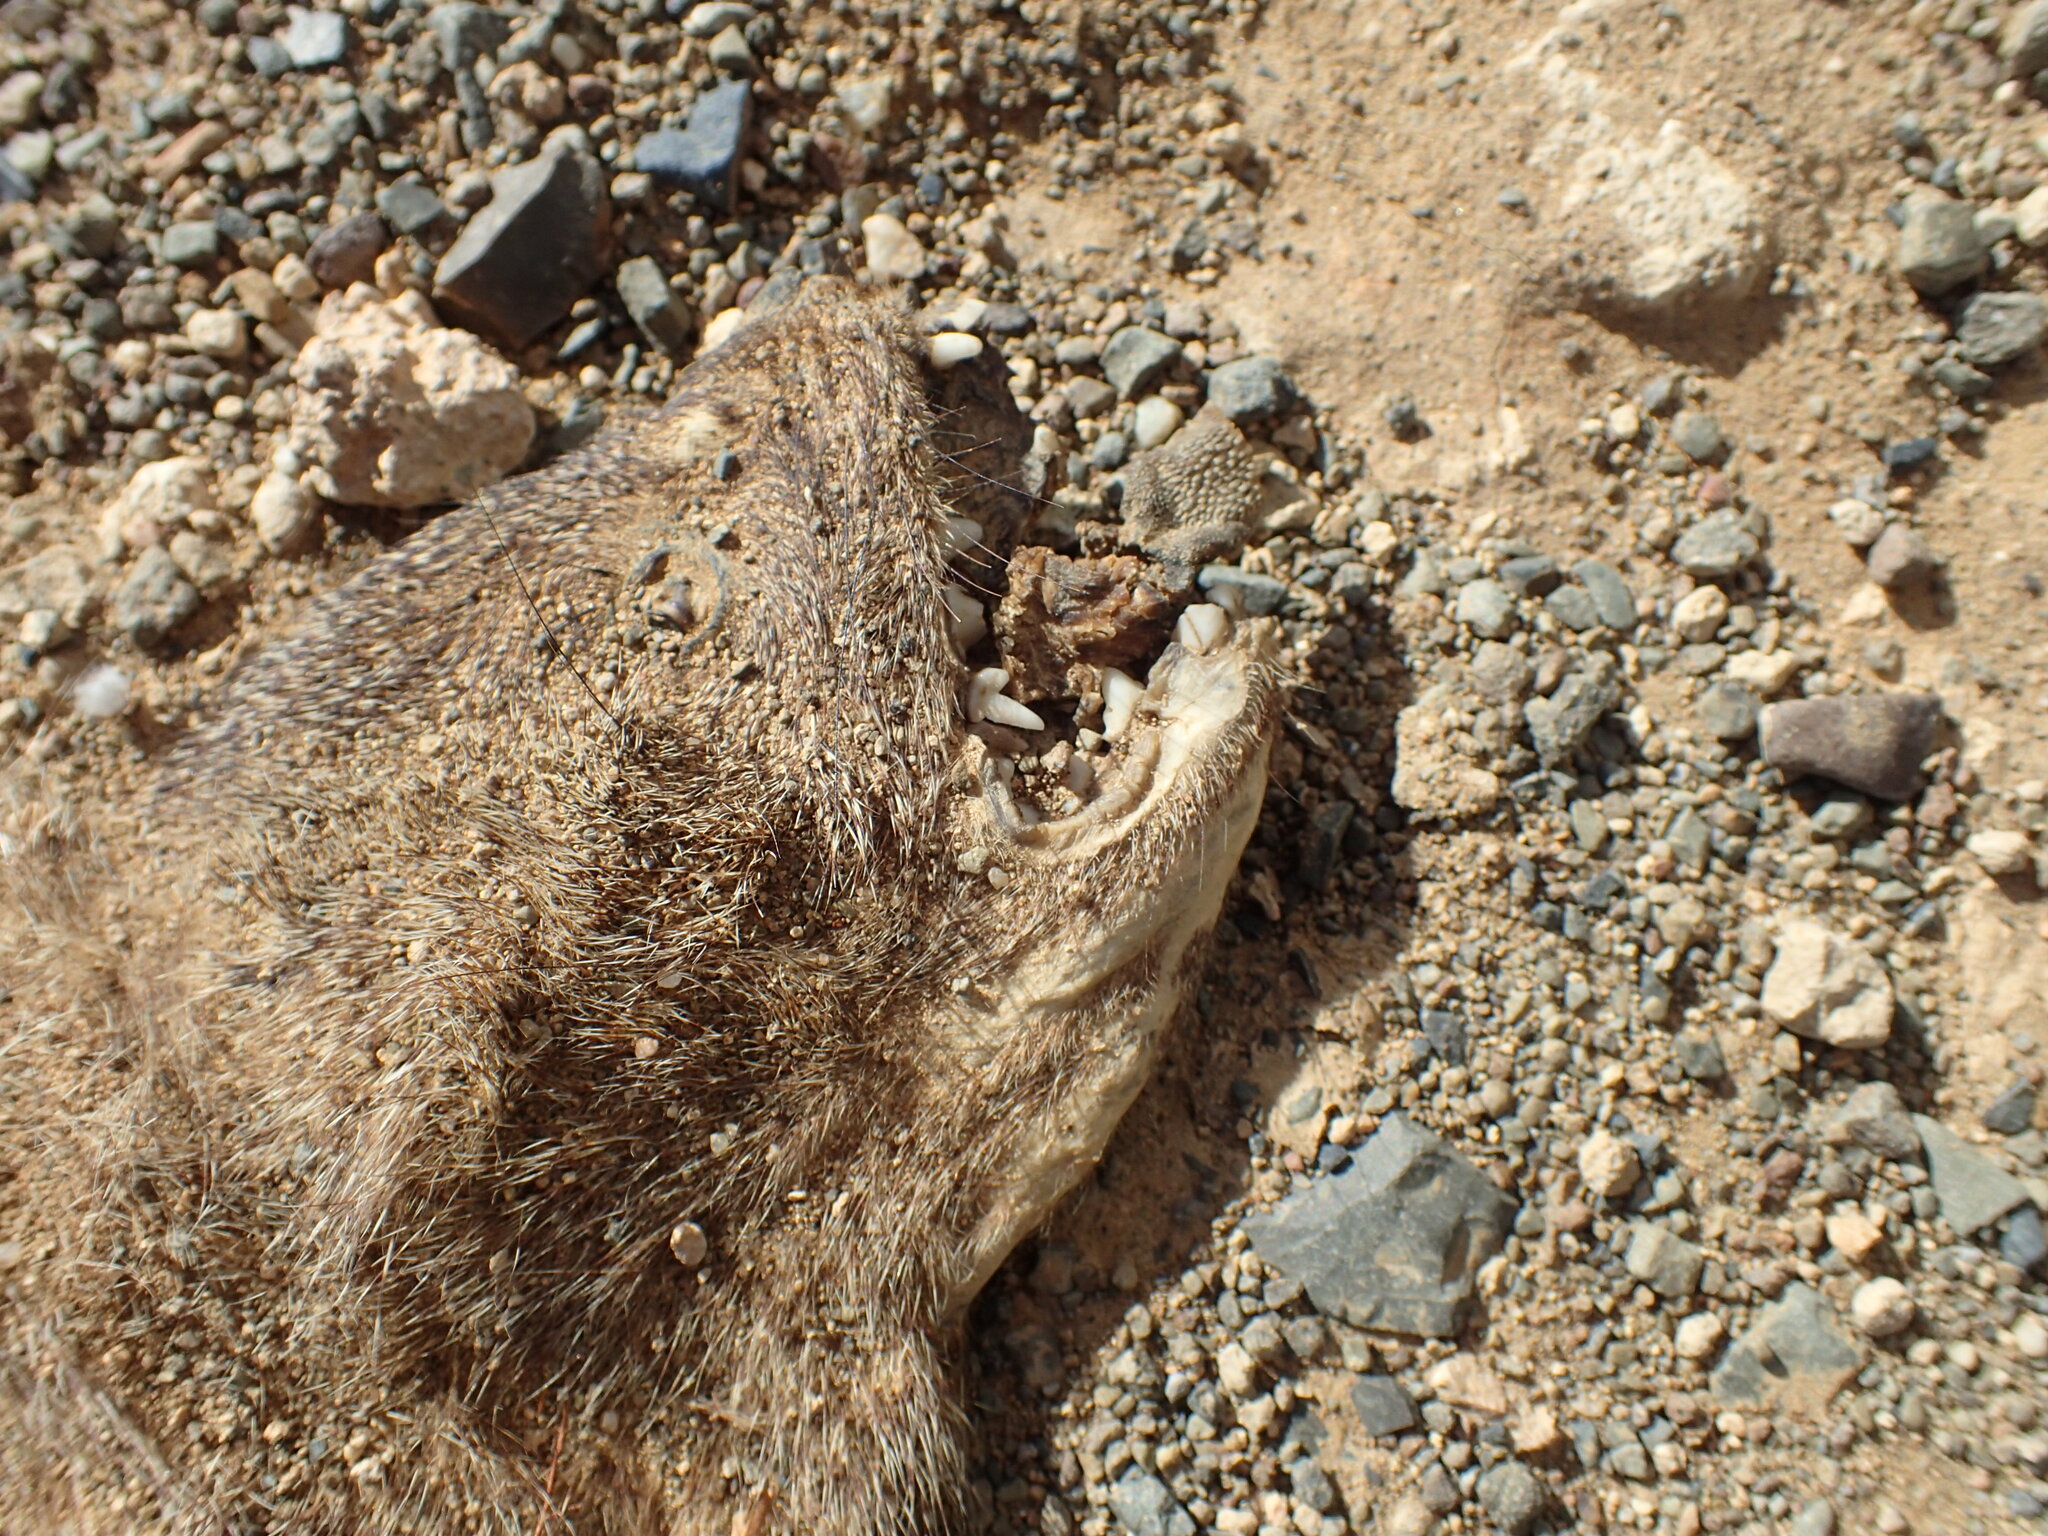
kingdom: Animalia
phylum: Chordata
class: Mammalia
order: Carnivora
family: Herpestidae
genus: Galerella
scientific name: Galerella pulverulenta
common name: Cape gray mongoose
